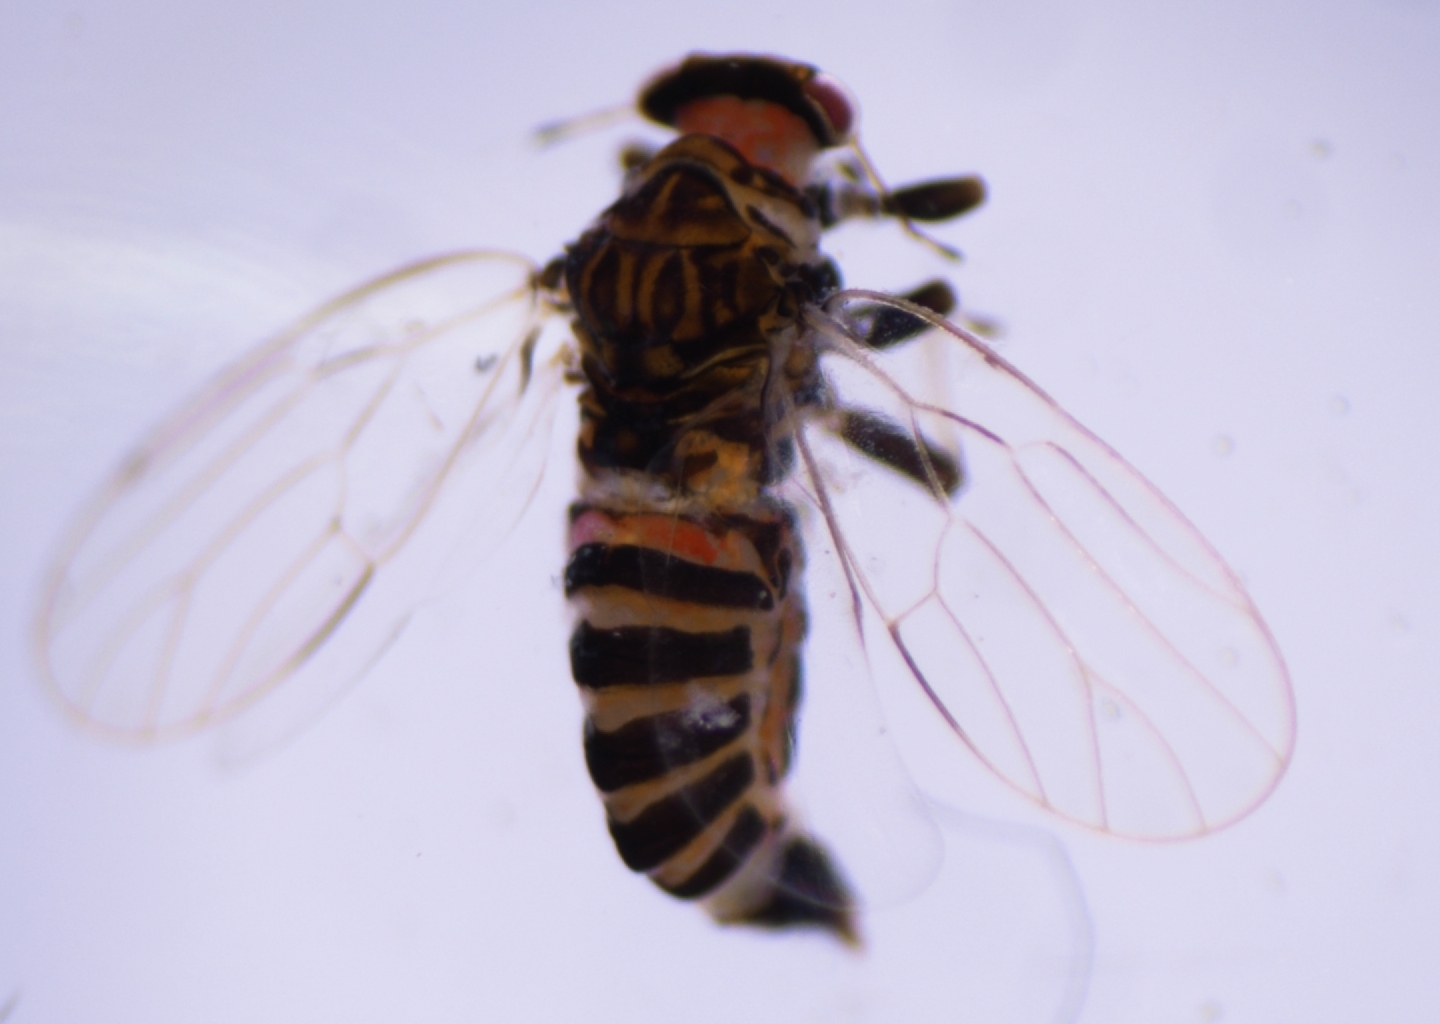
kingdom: Animalia
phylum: Arthropoda
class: Insecta
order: Hemiptera
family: Liviidae
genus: Syntomoza
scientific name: Syntomoza tahuata
